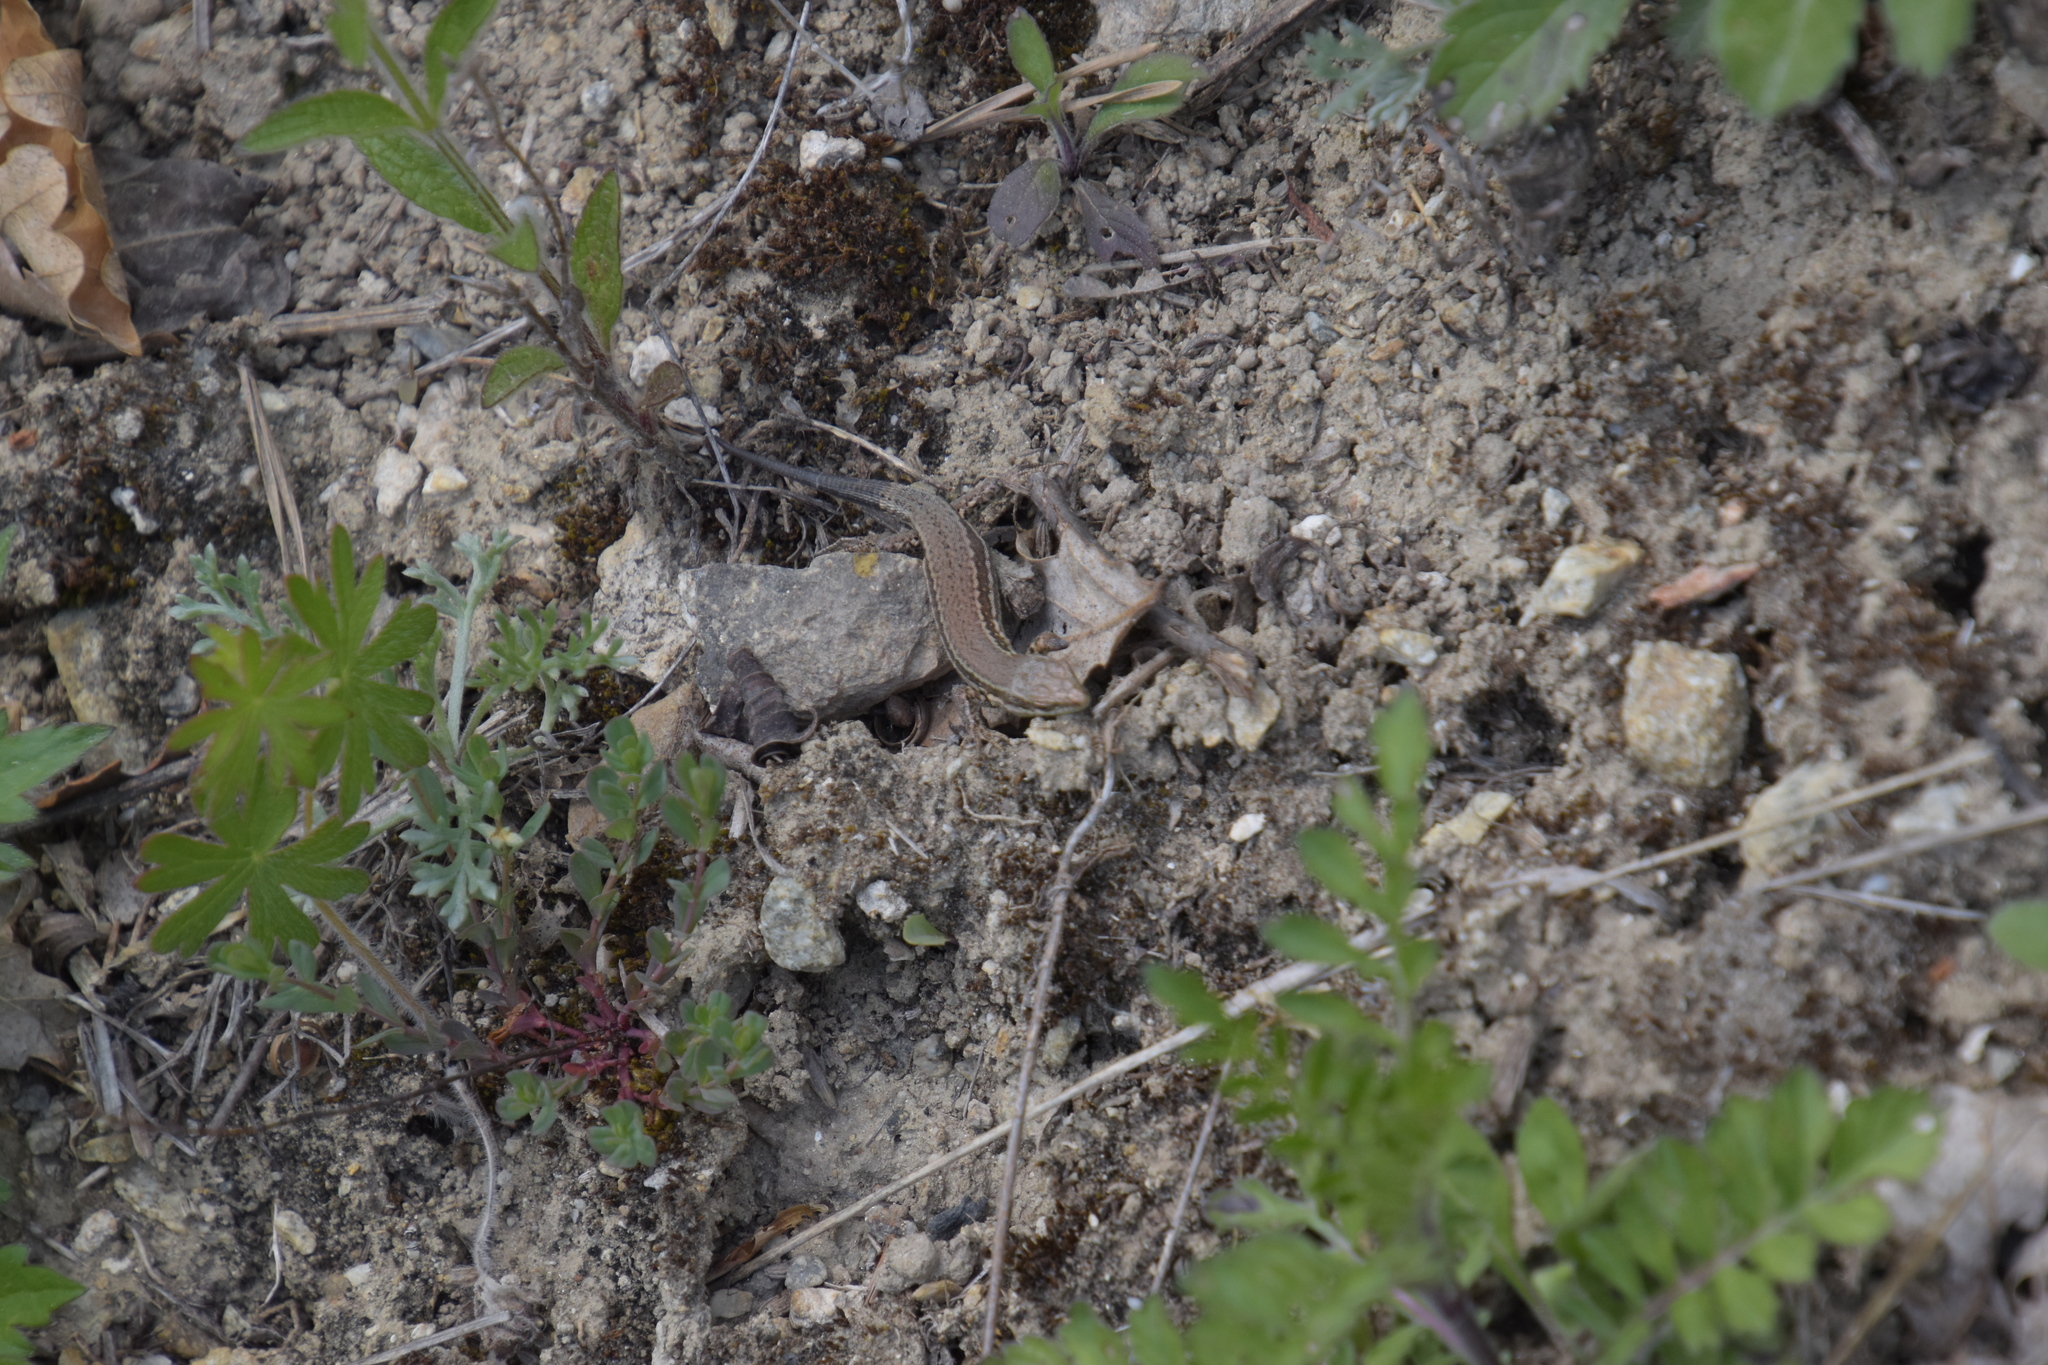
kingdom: Animalia
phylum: Chordata
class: Squamata
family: Lacertidae
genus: Podarcis
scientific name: Podarcis muralis
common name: Common wall lizard
